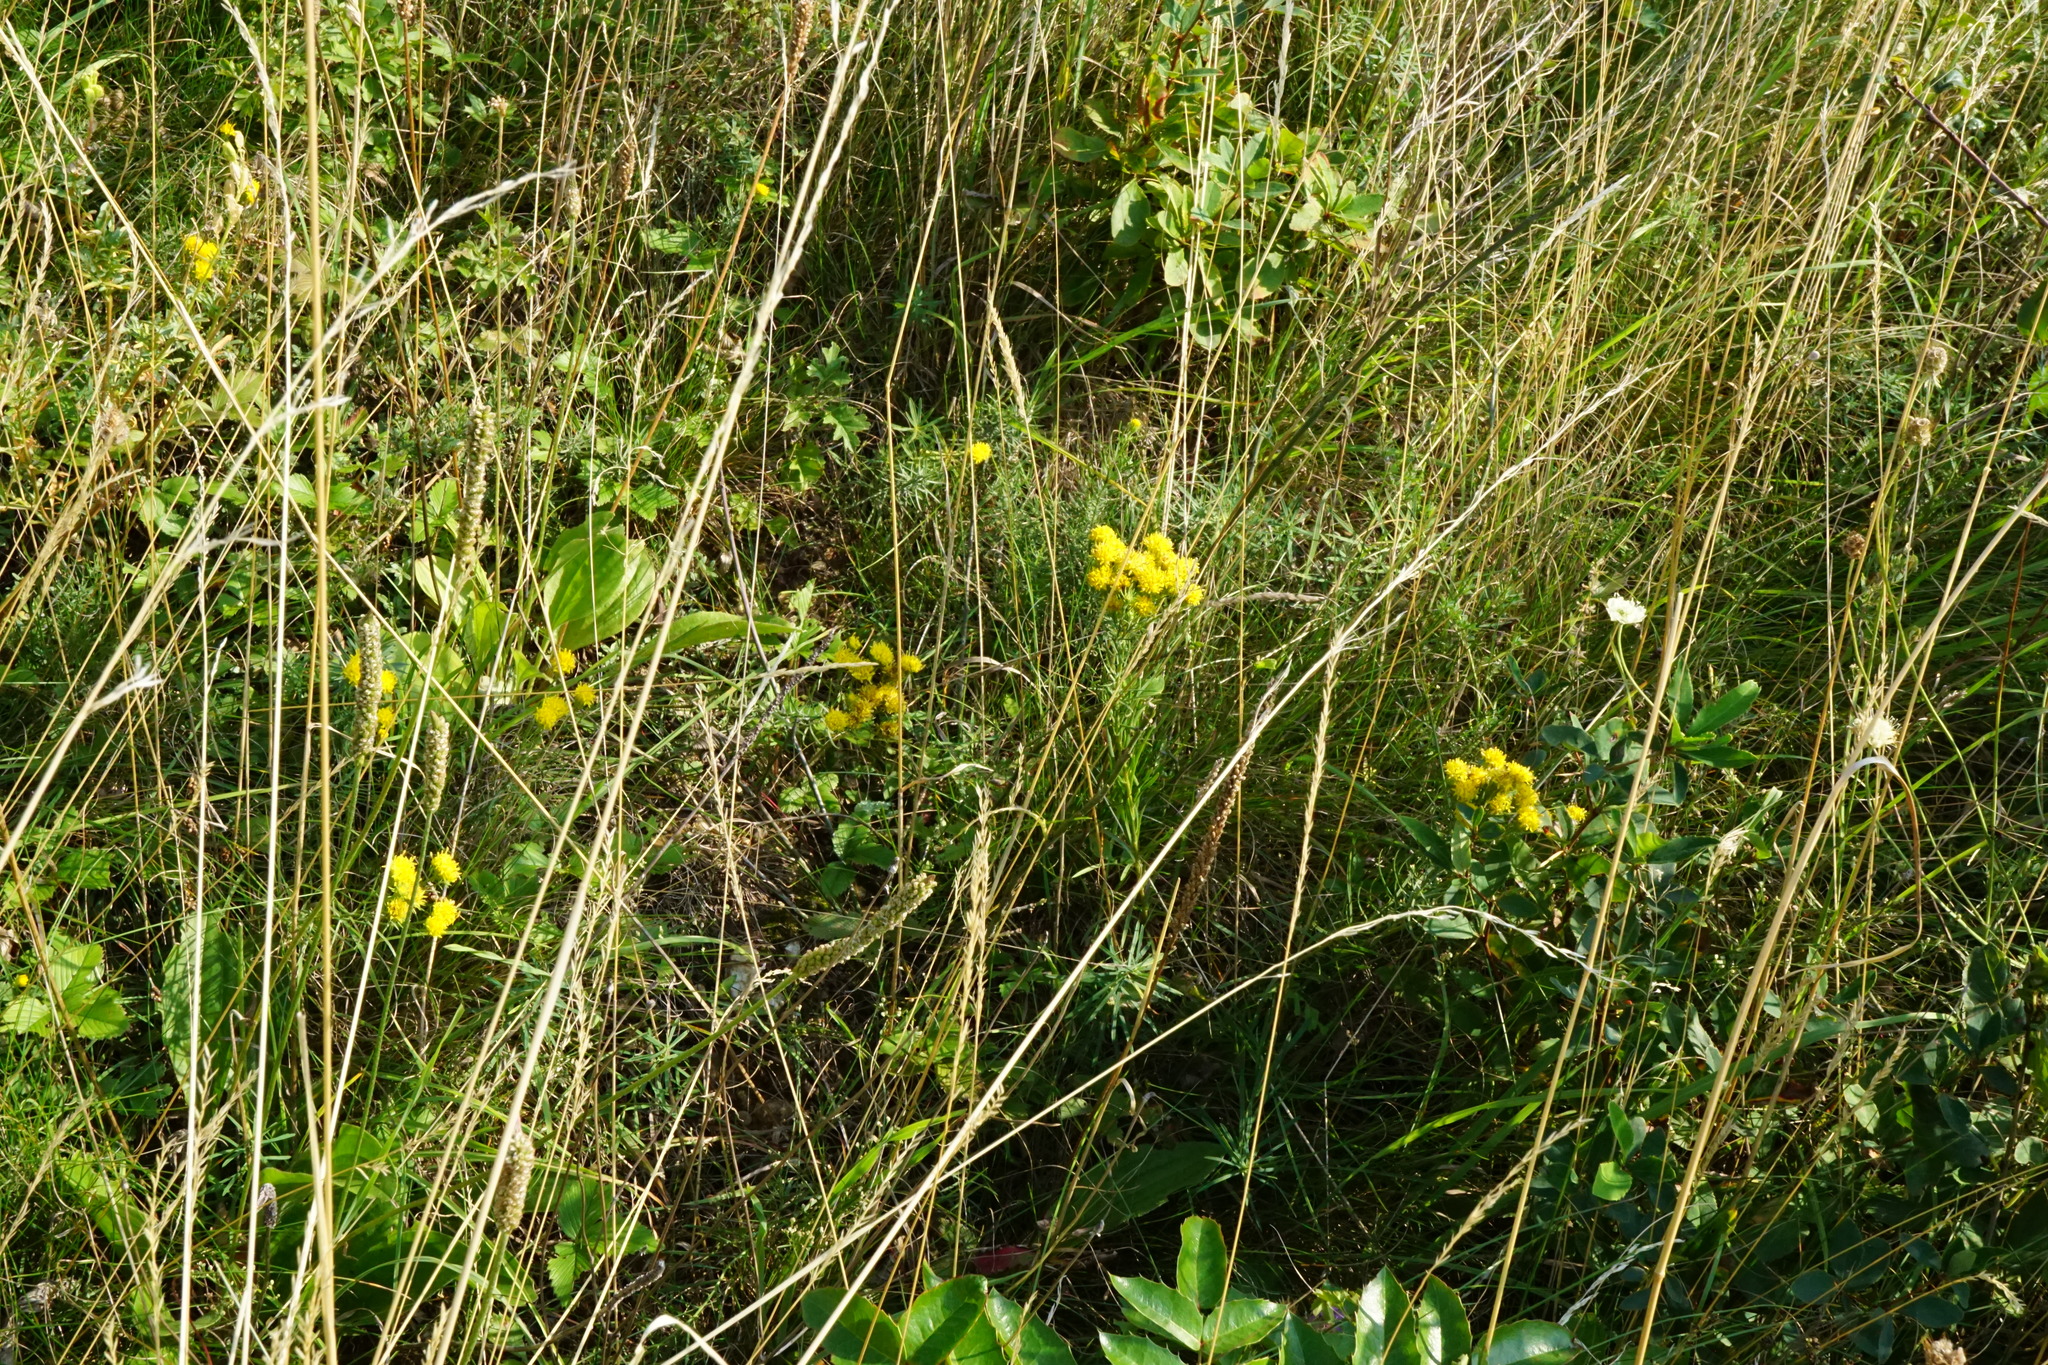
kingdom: Plantae
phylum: Tracheophyta
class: Magnoliopsida
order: Asterales
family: Asteraceae
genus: Galatella
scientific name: Galatella linosyris
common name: Goldilocks aster
